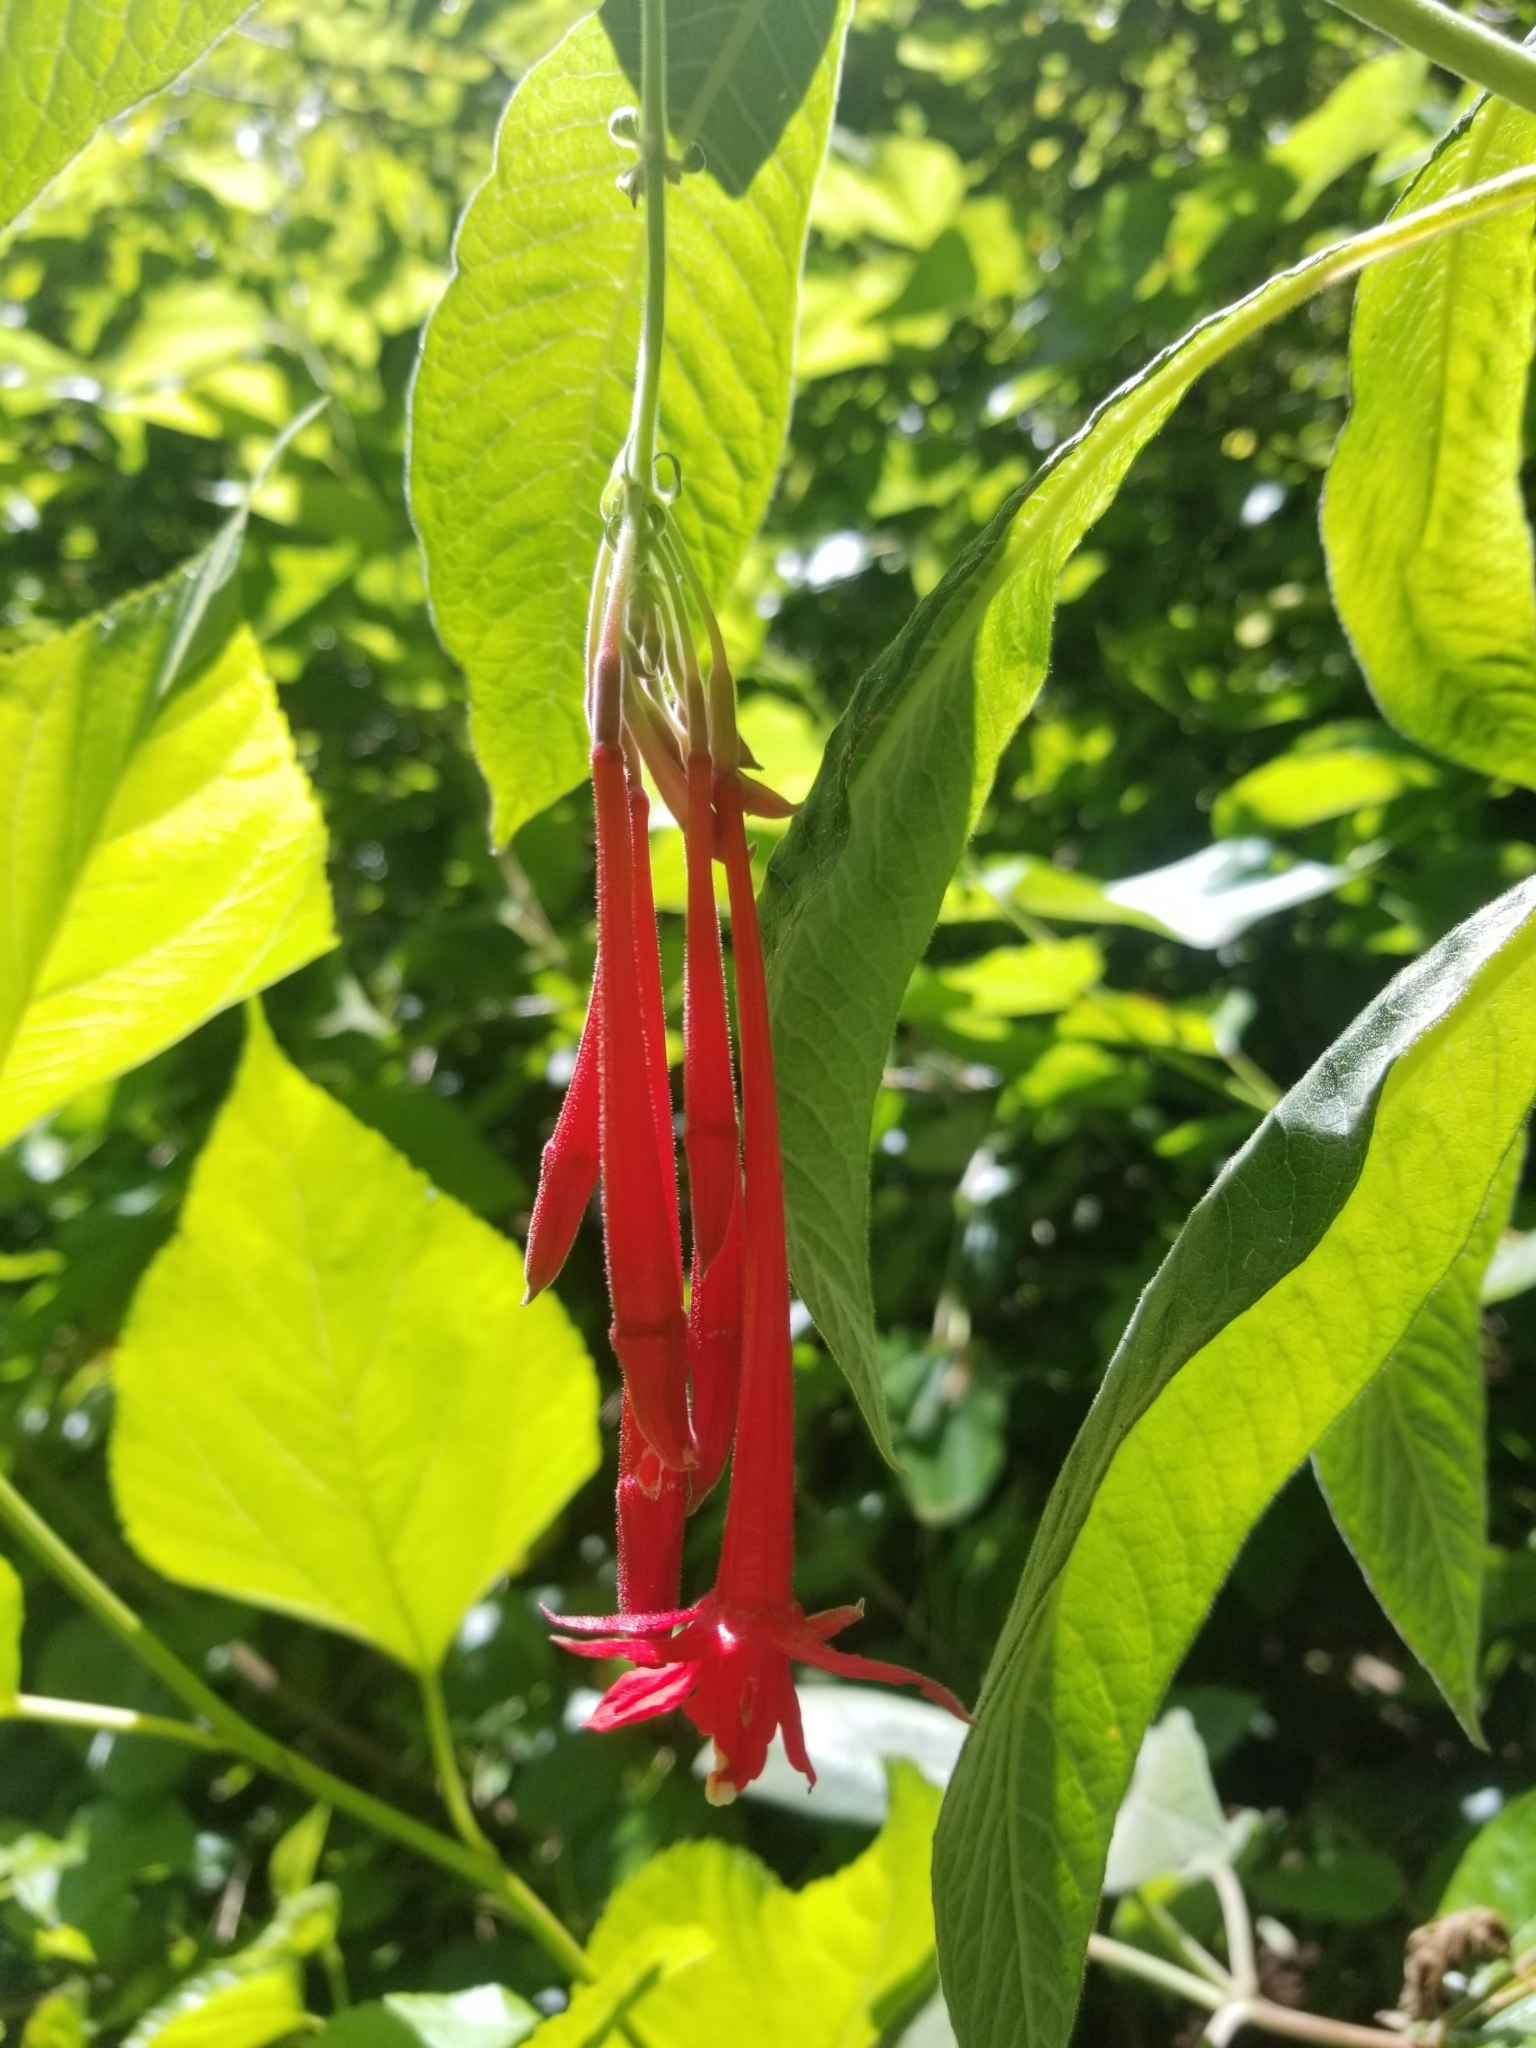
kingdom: Plantae
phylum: Tracheophyta
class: Magnoliopsida
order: Myrtales
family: Onagraceae
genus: Fuchsia
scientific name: Fuchsia boliviana
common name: Bolivian fuchsia
